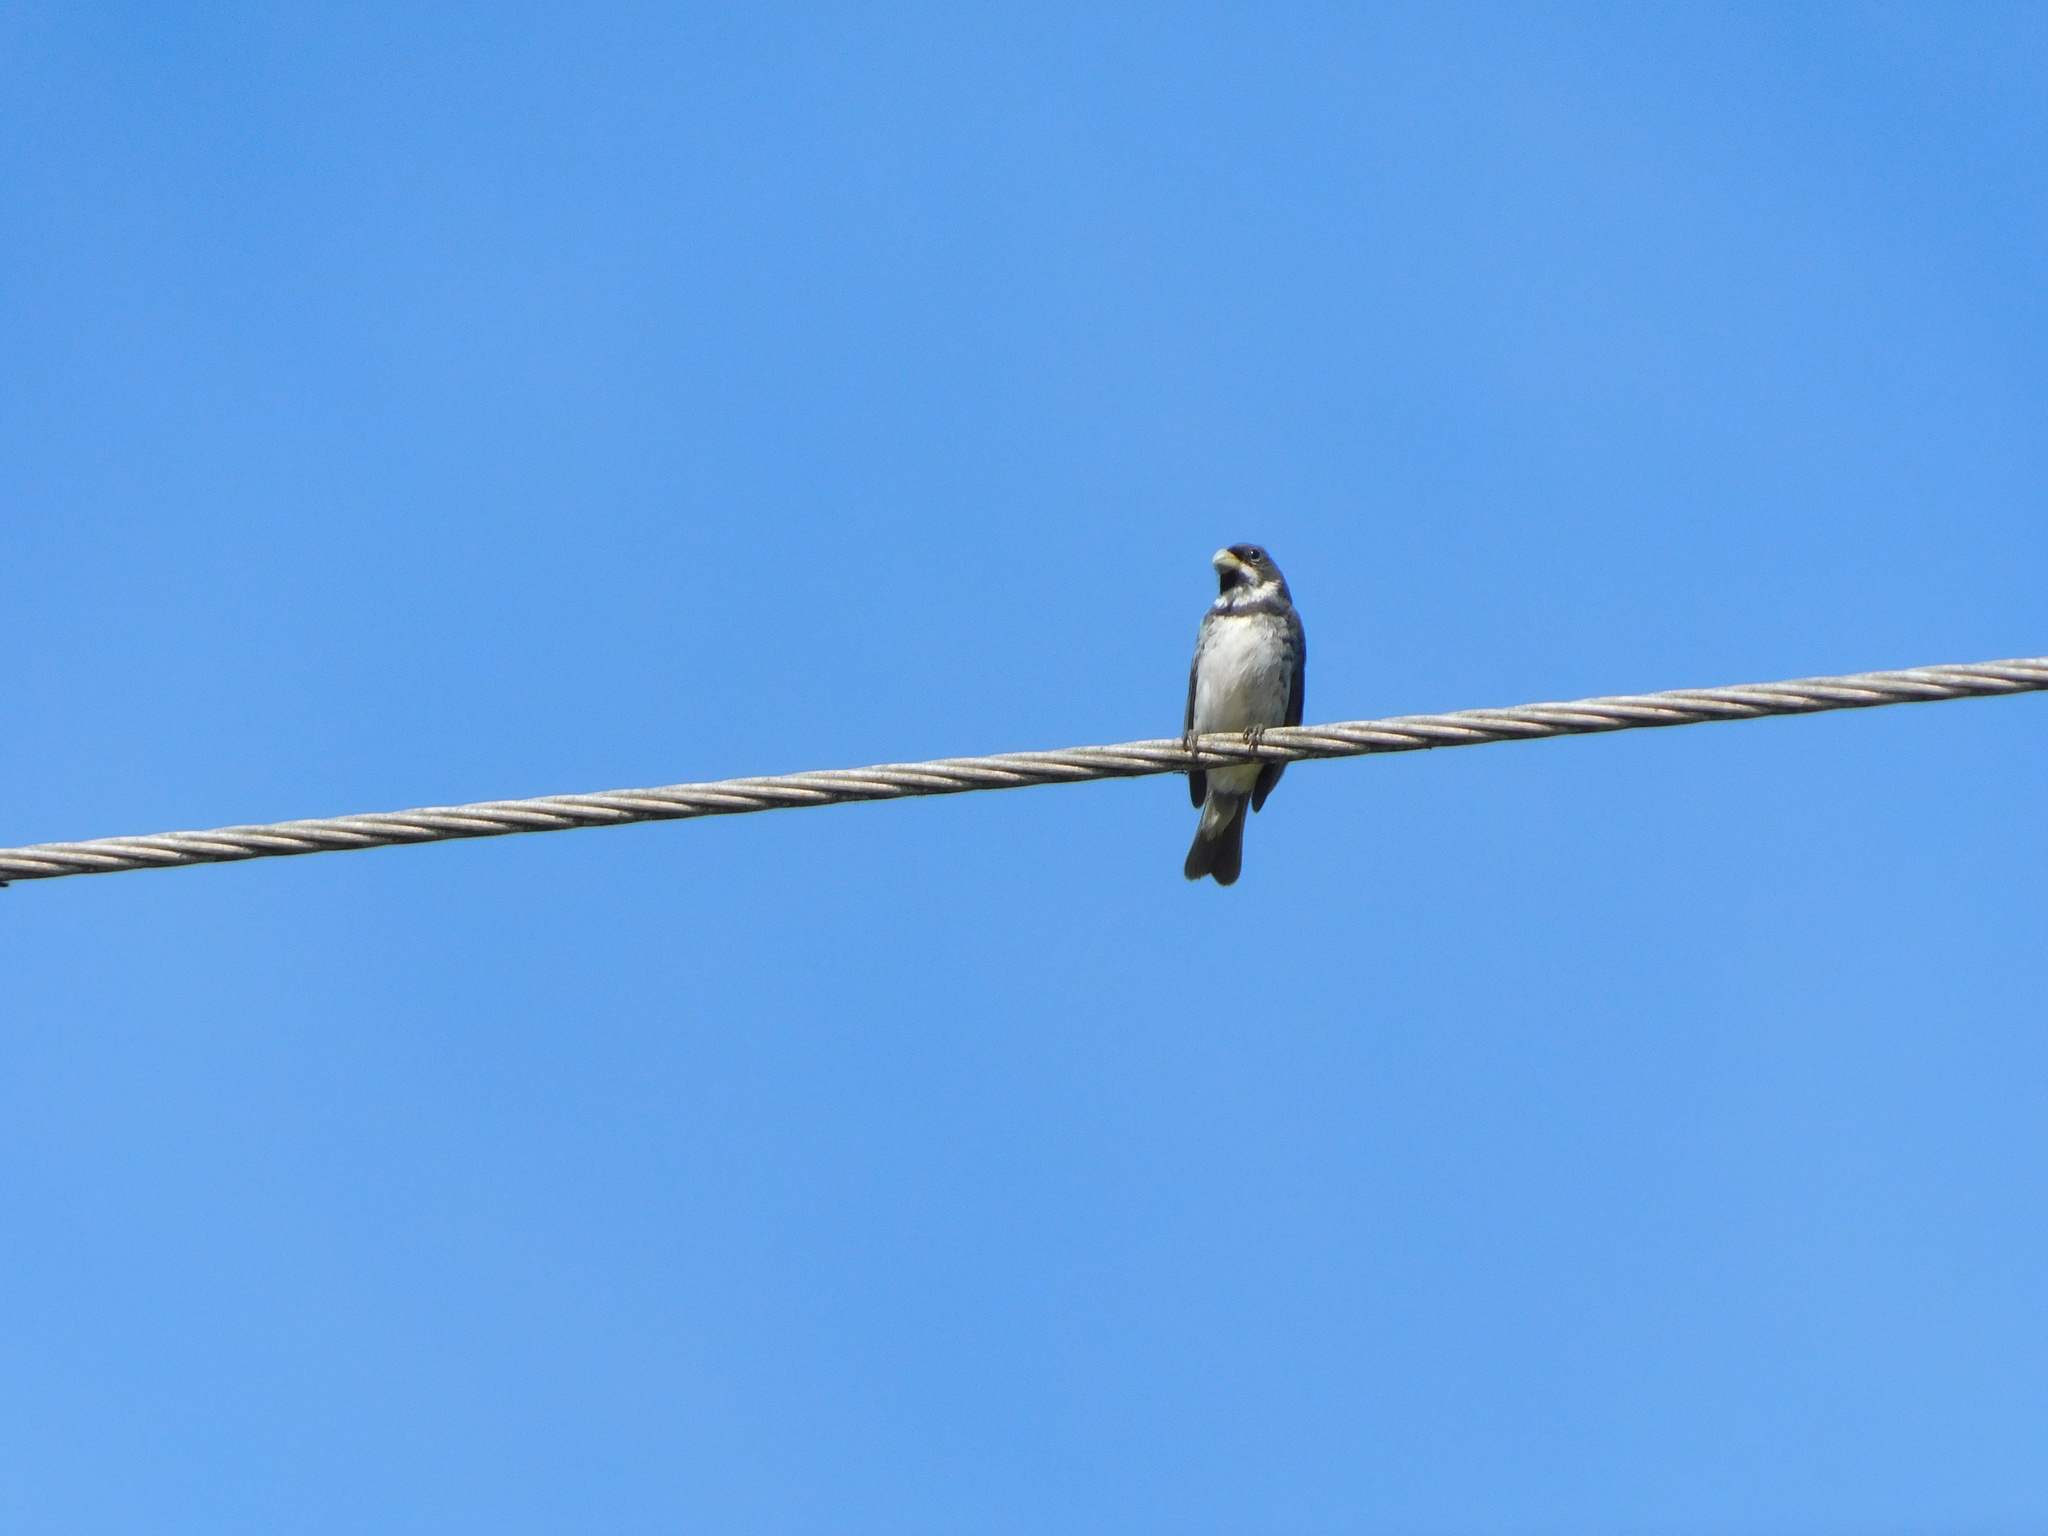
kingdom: Animalia
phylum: Chordata
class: Aves
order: Passeriformes
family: Thraupidae
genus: Sporophila
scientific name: Sporophila caerulescens
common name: Double-collared seedeater
